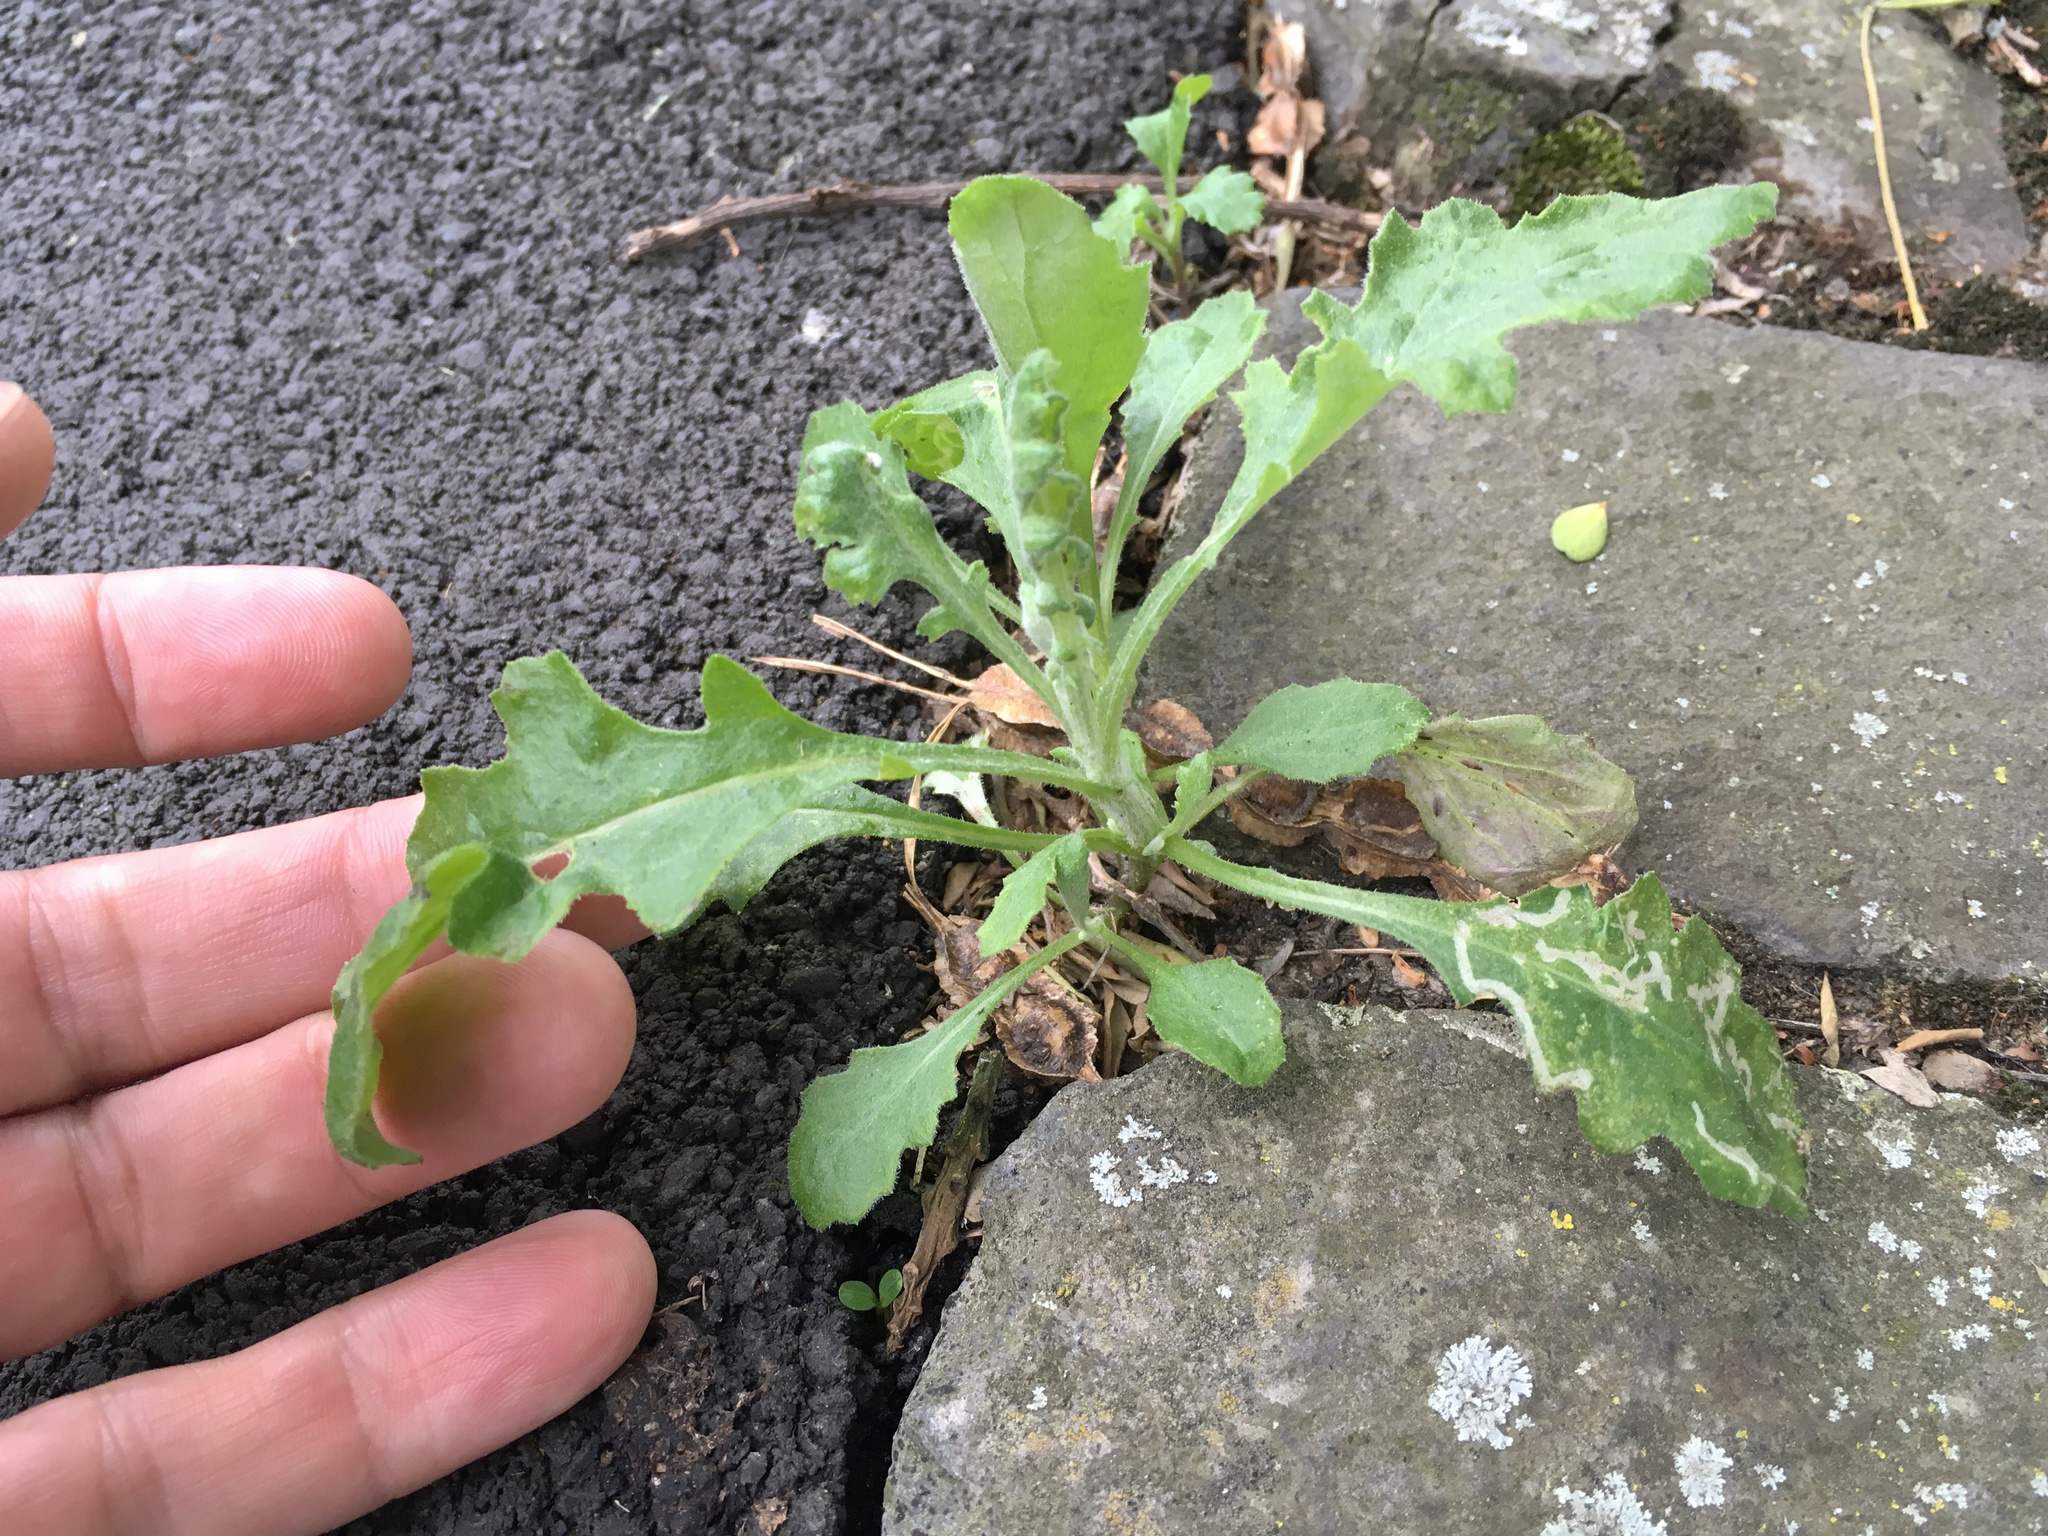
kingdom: Plantae
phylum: Tracheophyta
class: Magnoliopsida
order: Asterales
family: Asteraceae
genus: Senecio
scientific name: Senecio glomeratus
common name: Cutleaf burnweed
